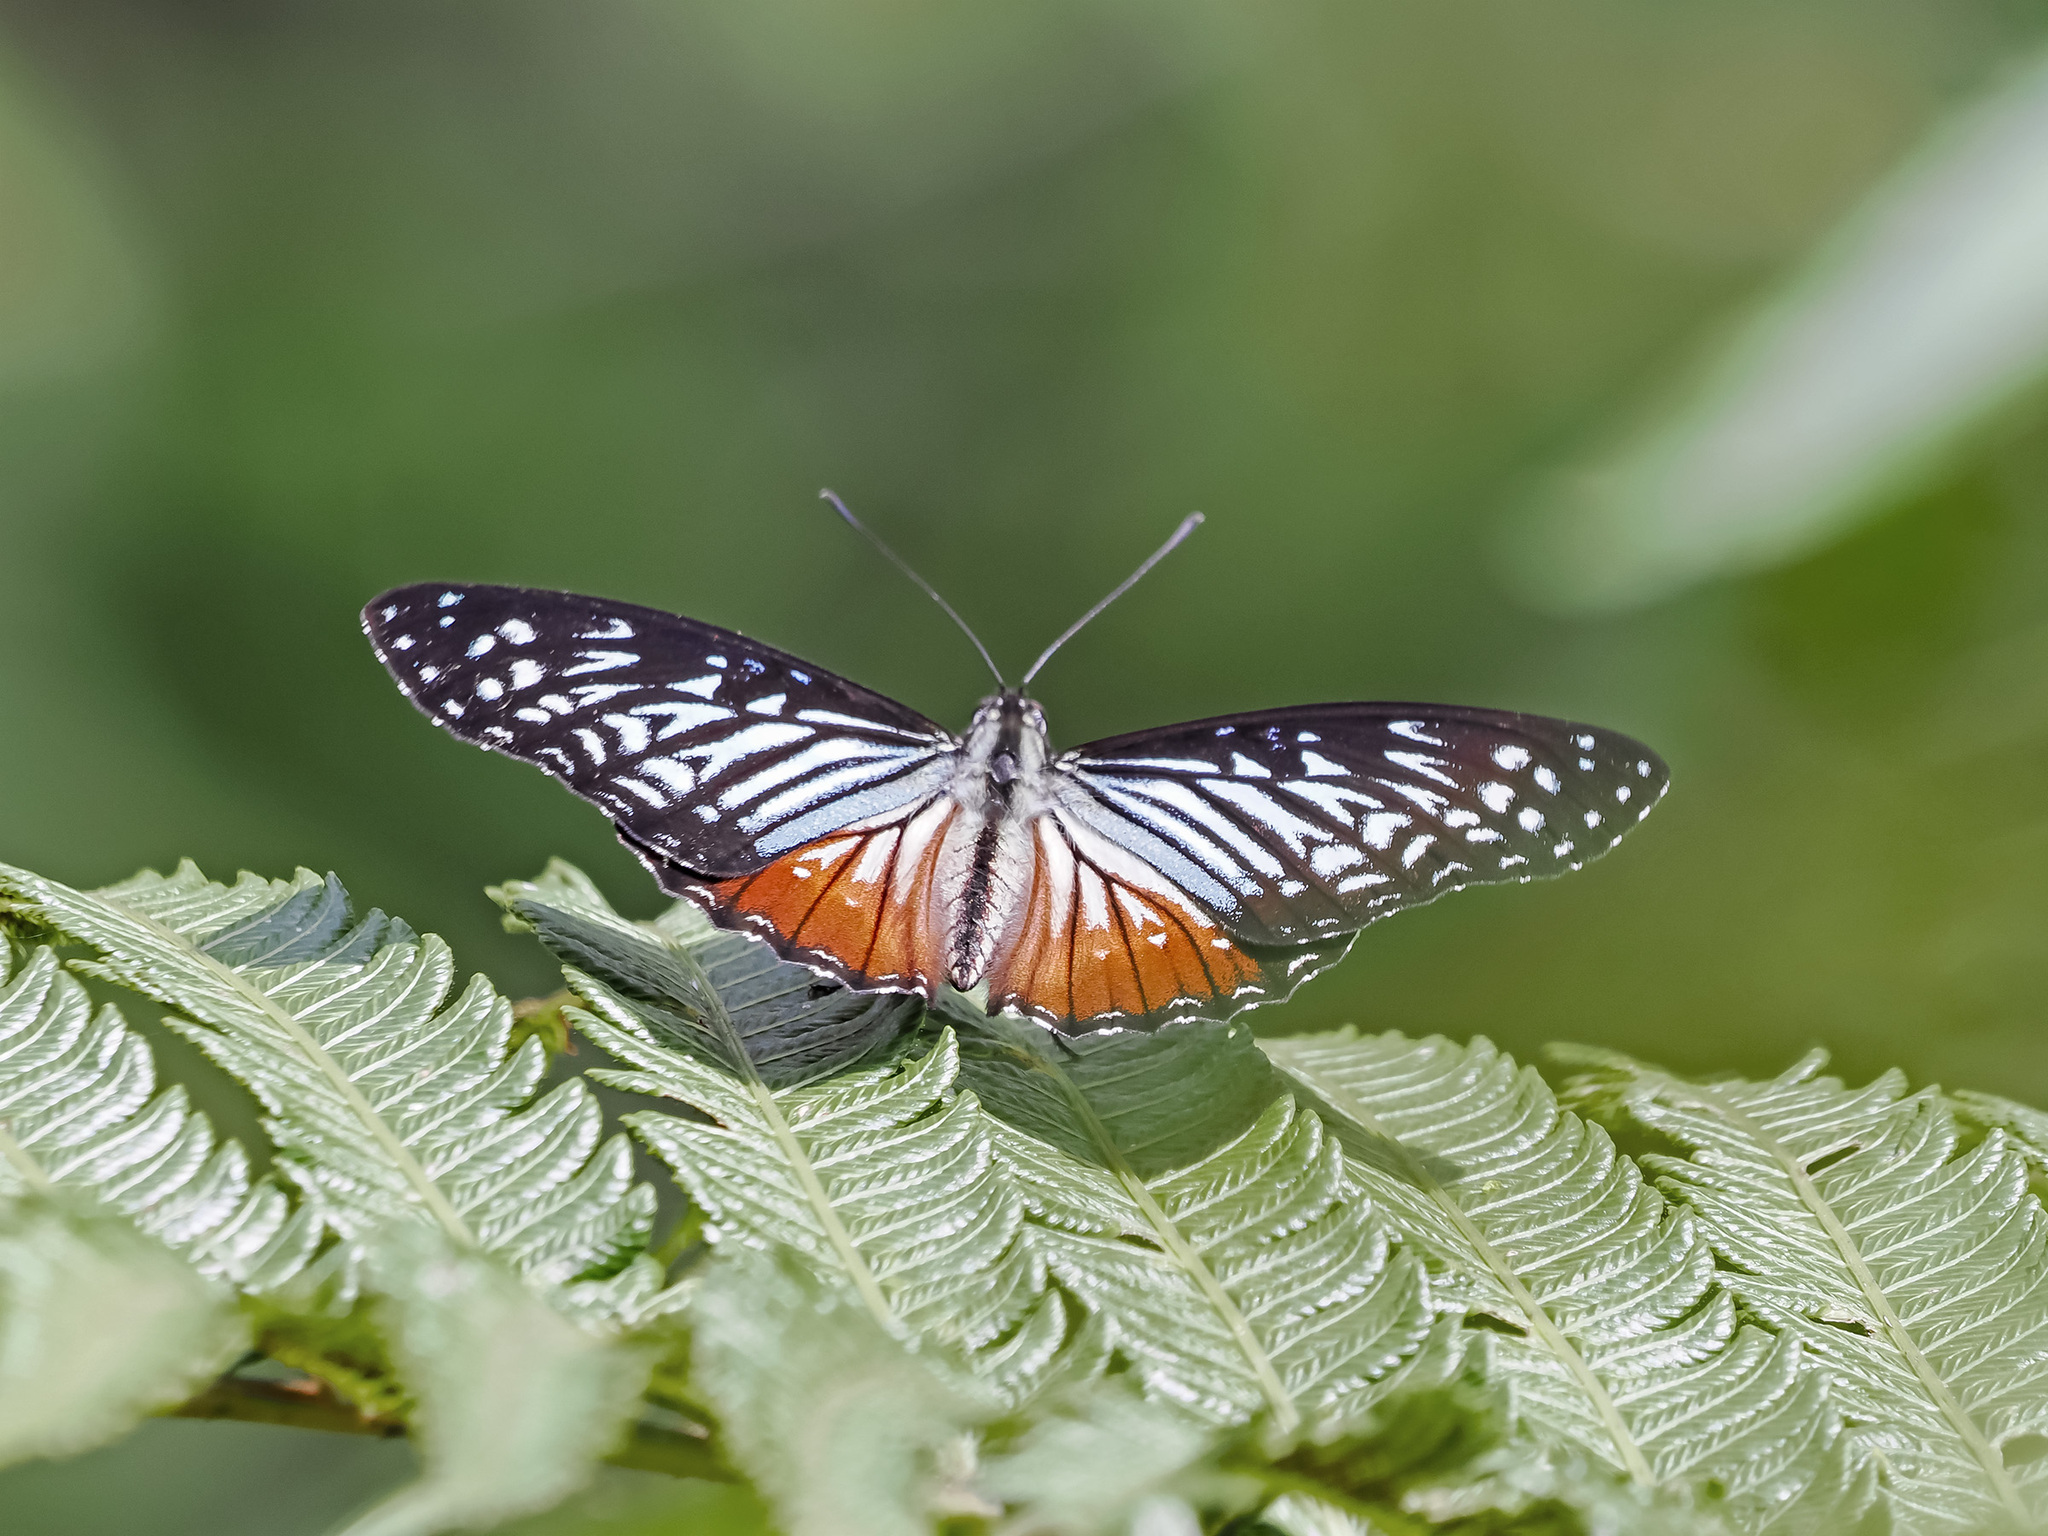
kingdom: Animalia
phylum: Arthropoda
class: Insecta
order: Lepidoptera
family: Nymphalidae
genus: Hestinalis
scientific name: Hestinalis nama
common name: Circe
